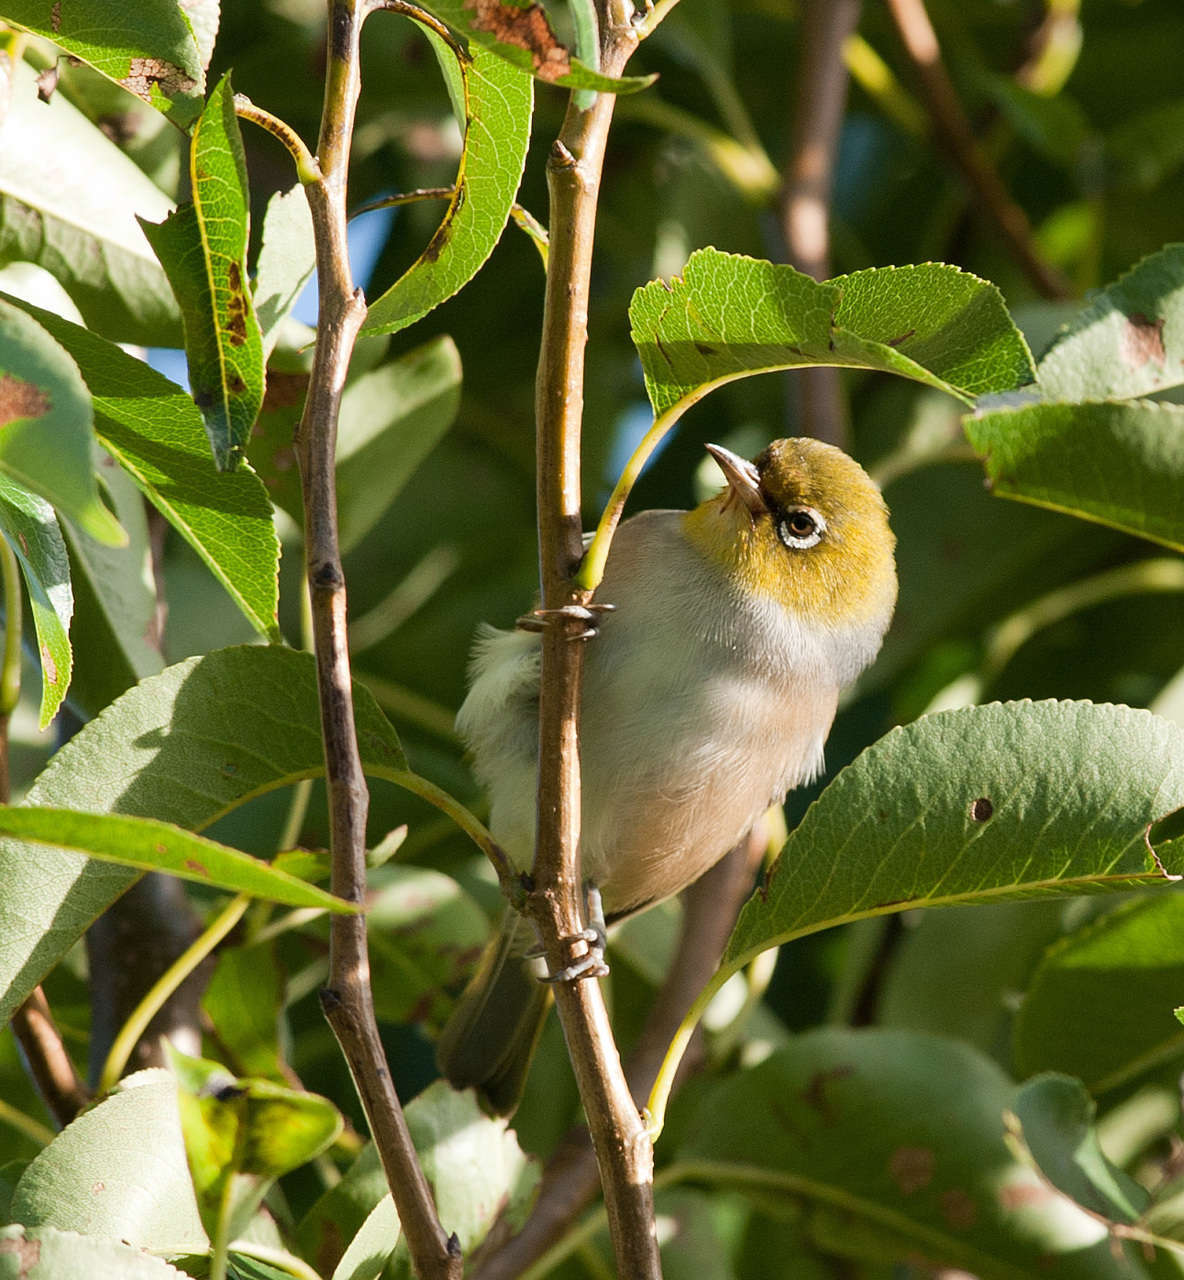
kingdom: Animalia
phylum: Chordata
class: Aves
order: Passeriformes
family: Zosteropidae
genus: Zosterops
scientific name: Zosterops lateralis
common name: Silvereye
